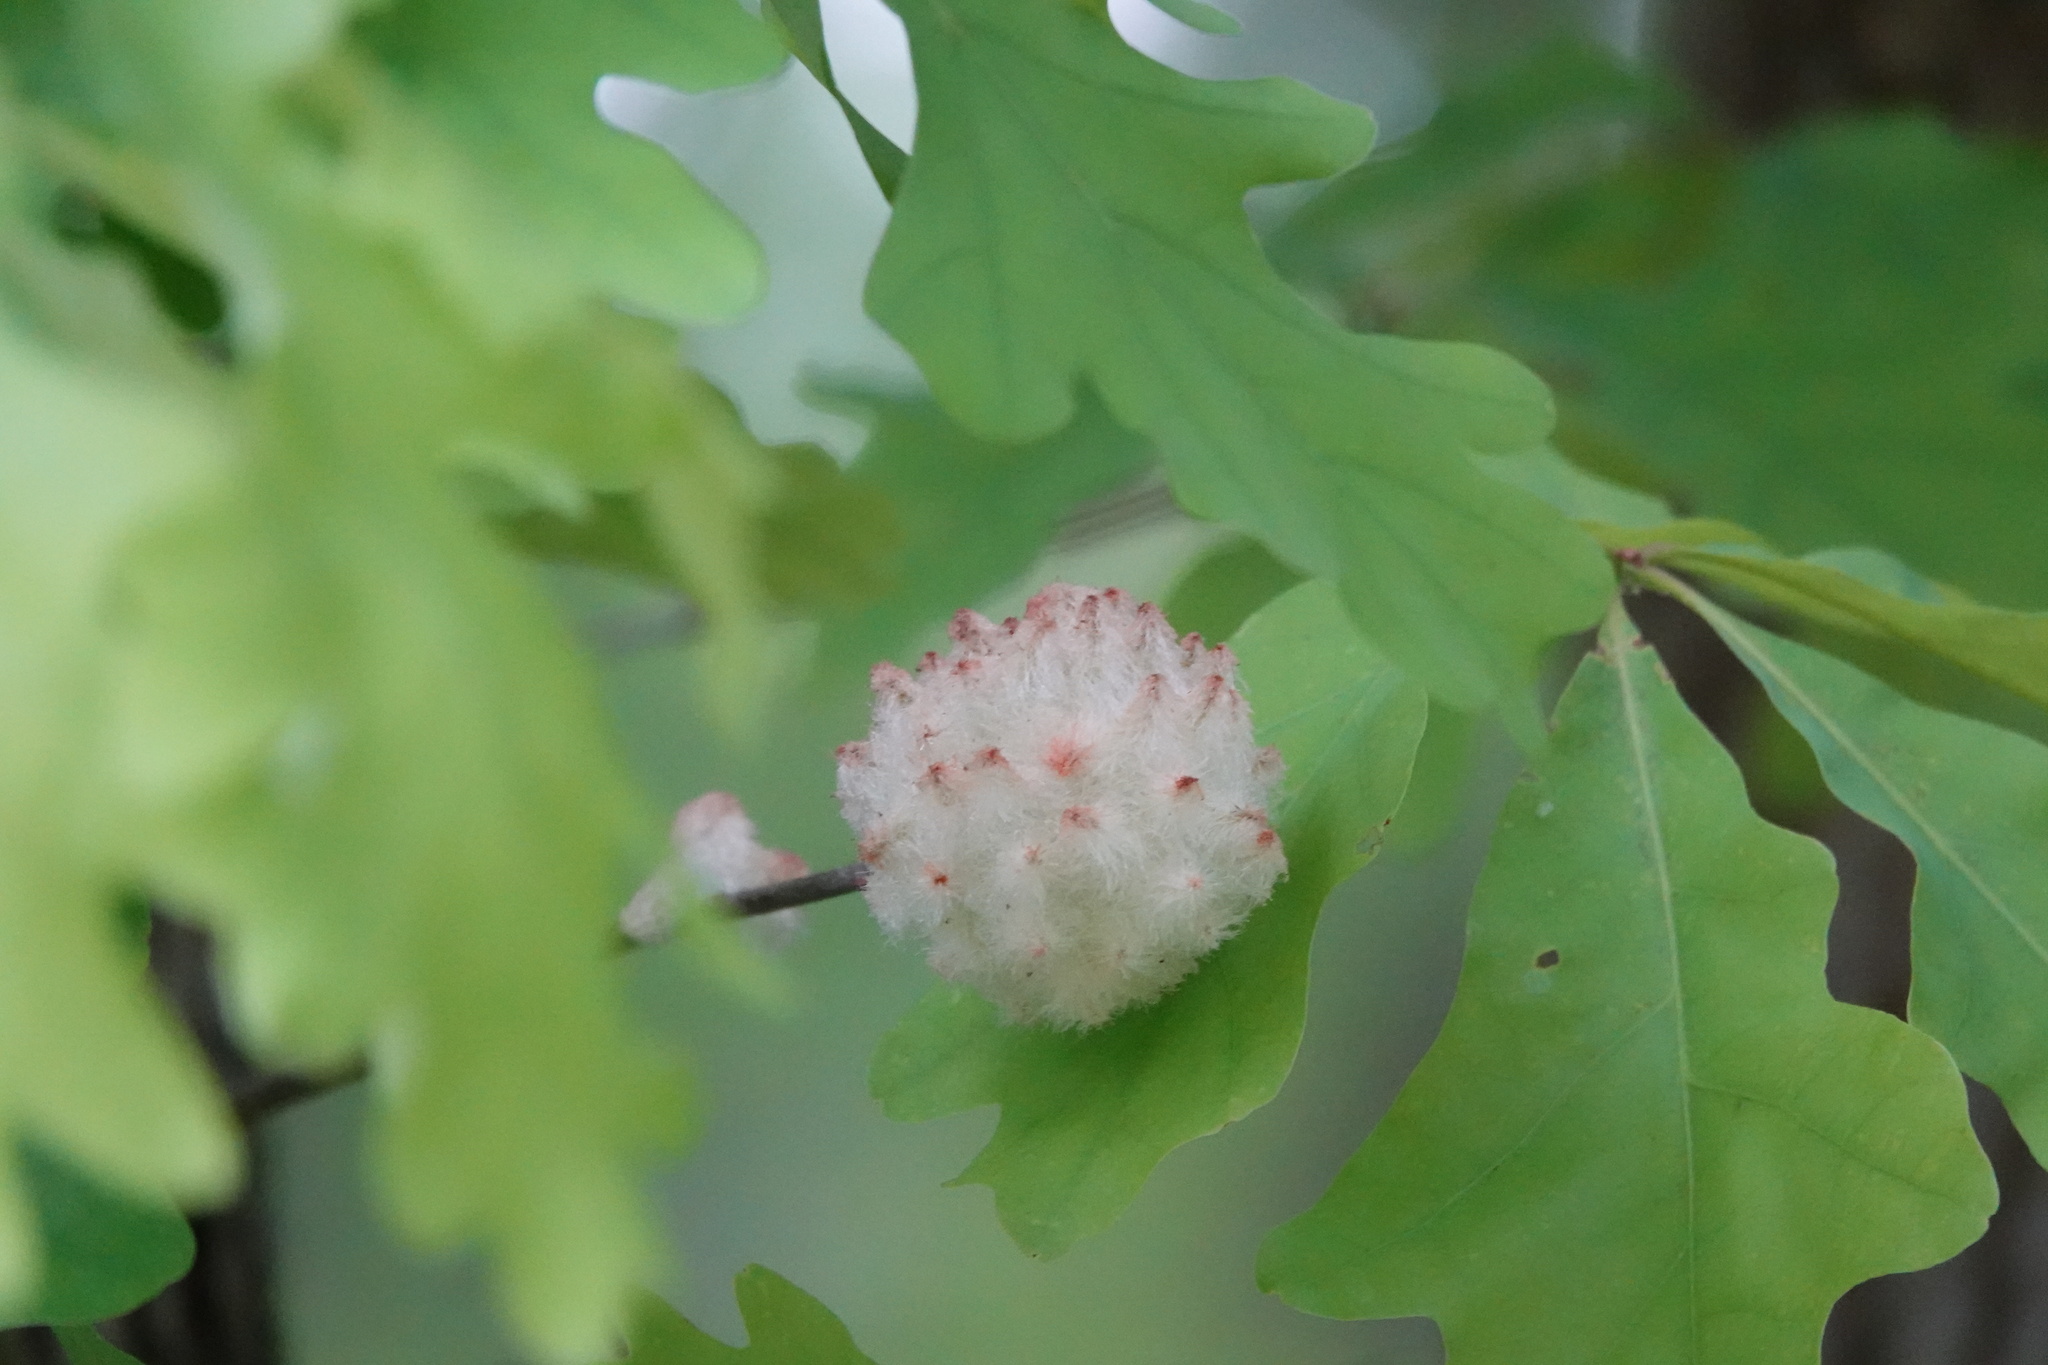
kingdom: Animalia
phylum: Arthropoda
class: Insecta
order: Hymenoptera
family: Cynipidae
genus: Callirhytis
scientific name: Callirhytis
